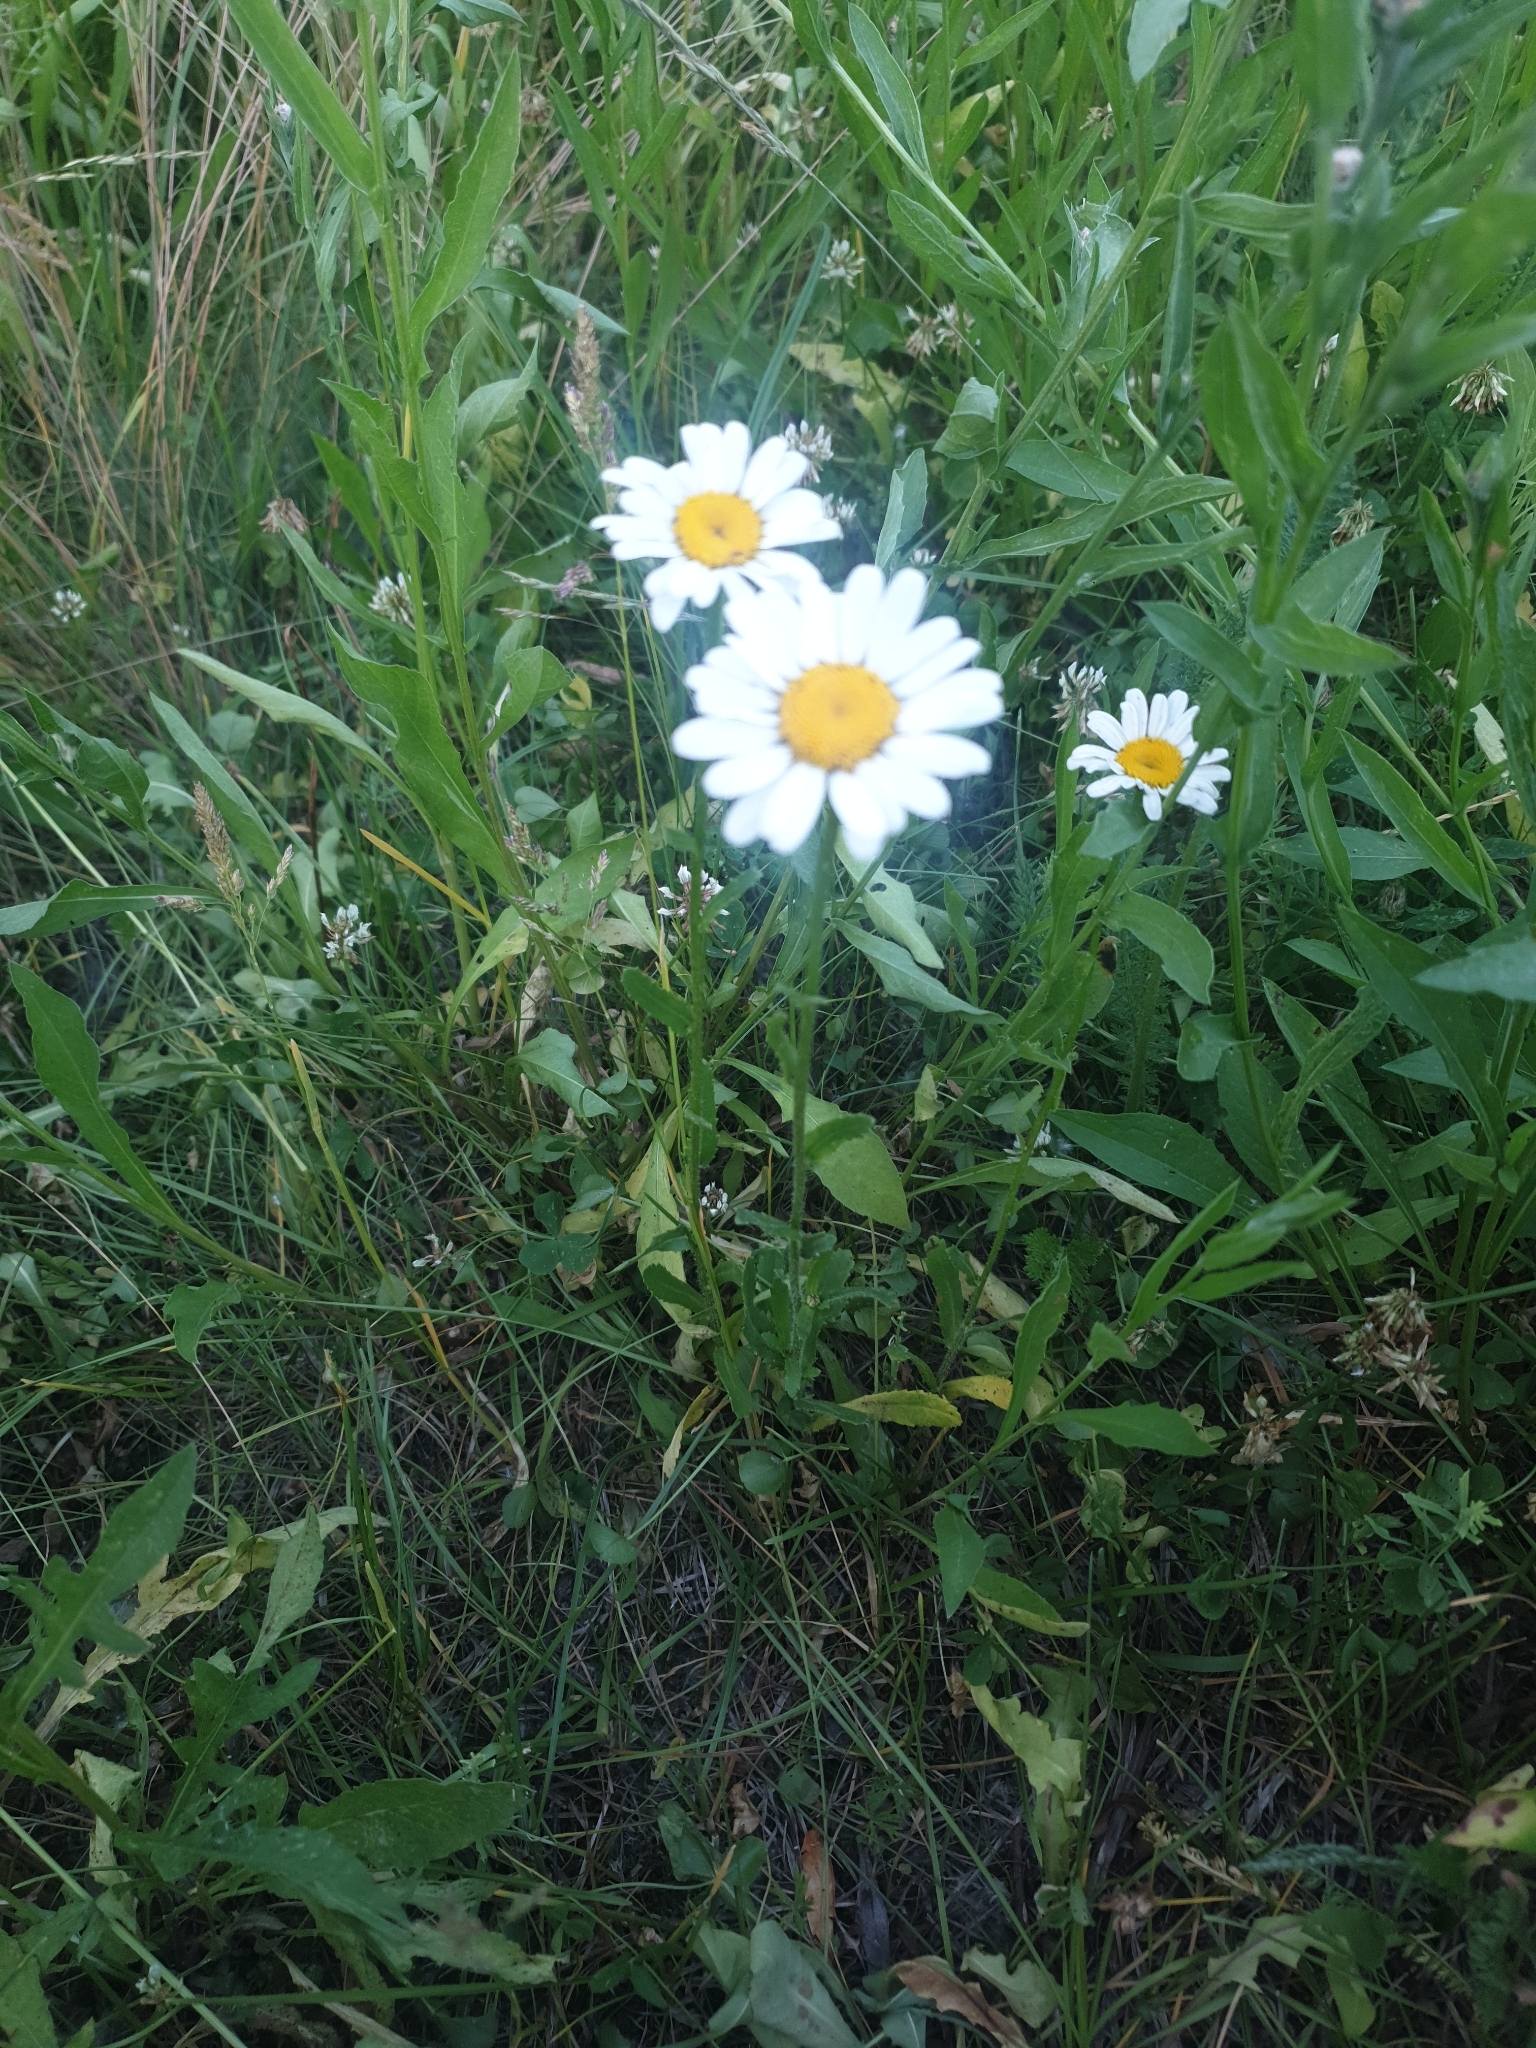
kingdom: Plantae
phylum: Tracheophyta
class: Magnoliopsida
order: Asterales
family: Asteraceae
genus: Leucanthemum
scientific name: Leucanthemum vulgare
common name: Oxeye daisy
